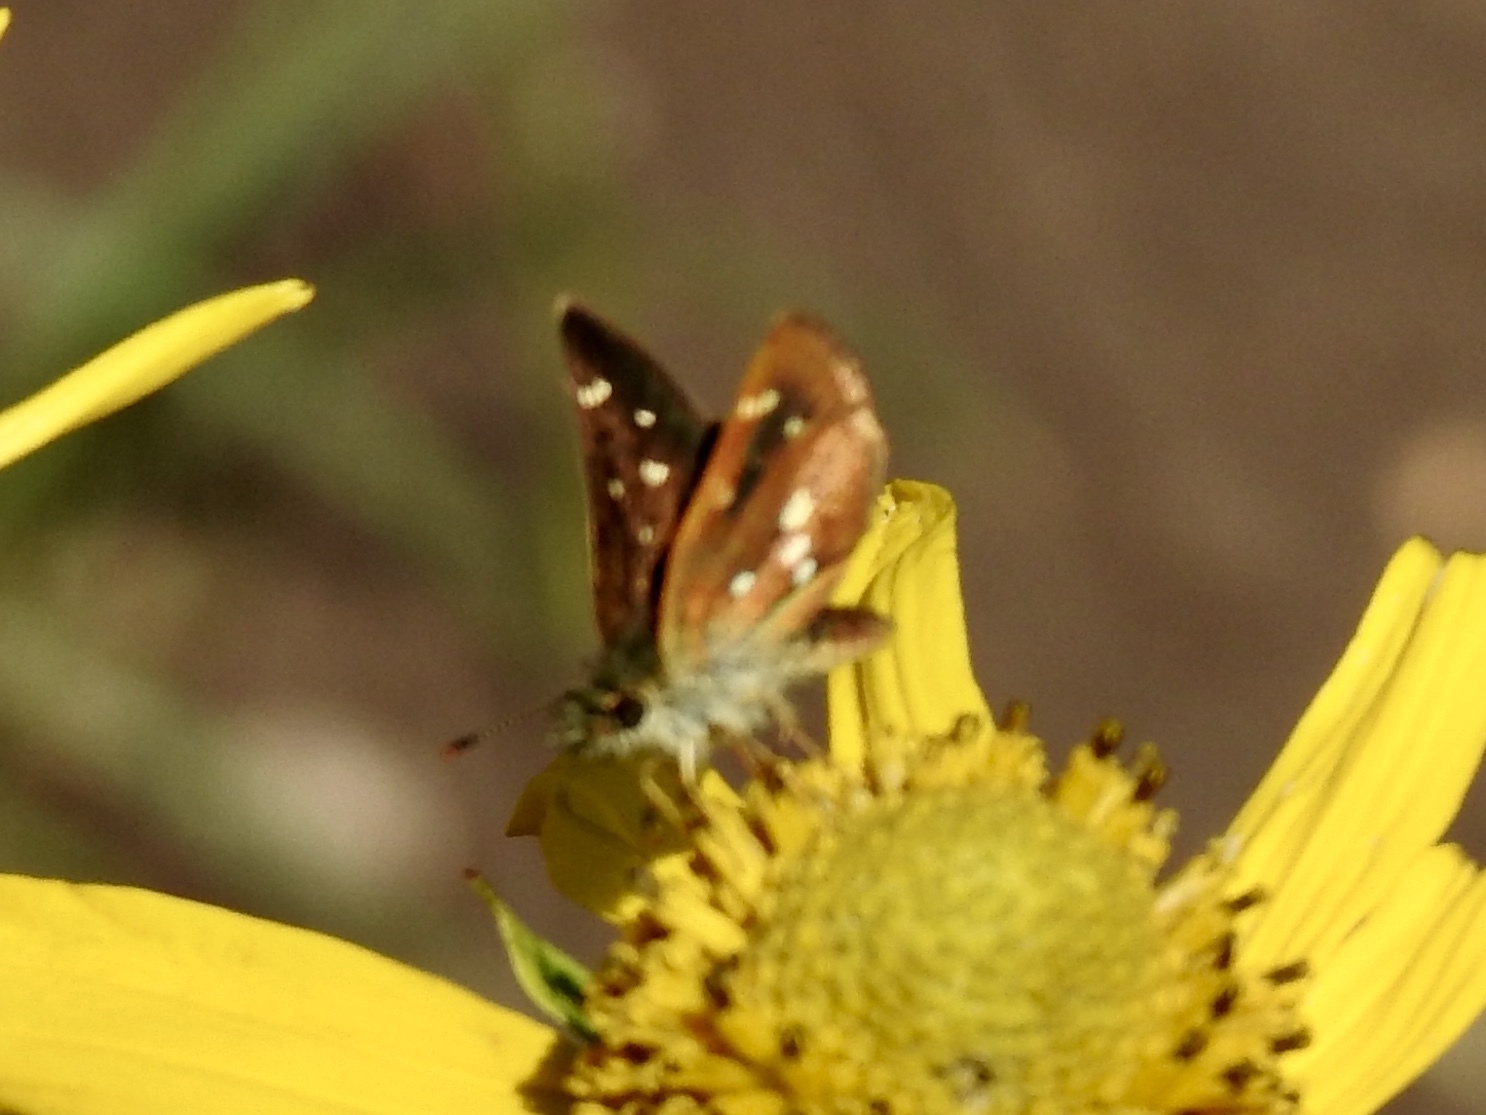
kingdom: Animalia
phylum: Arthropoda
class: Insecta
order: Lepidoptera
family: Hesperiidae
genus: Piruna
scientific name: Piruna polingii
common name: Four-spotted skipperling
